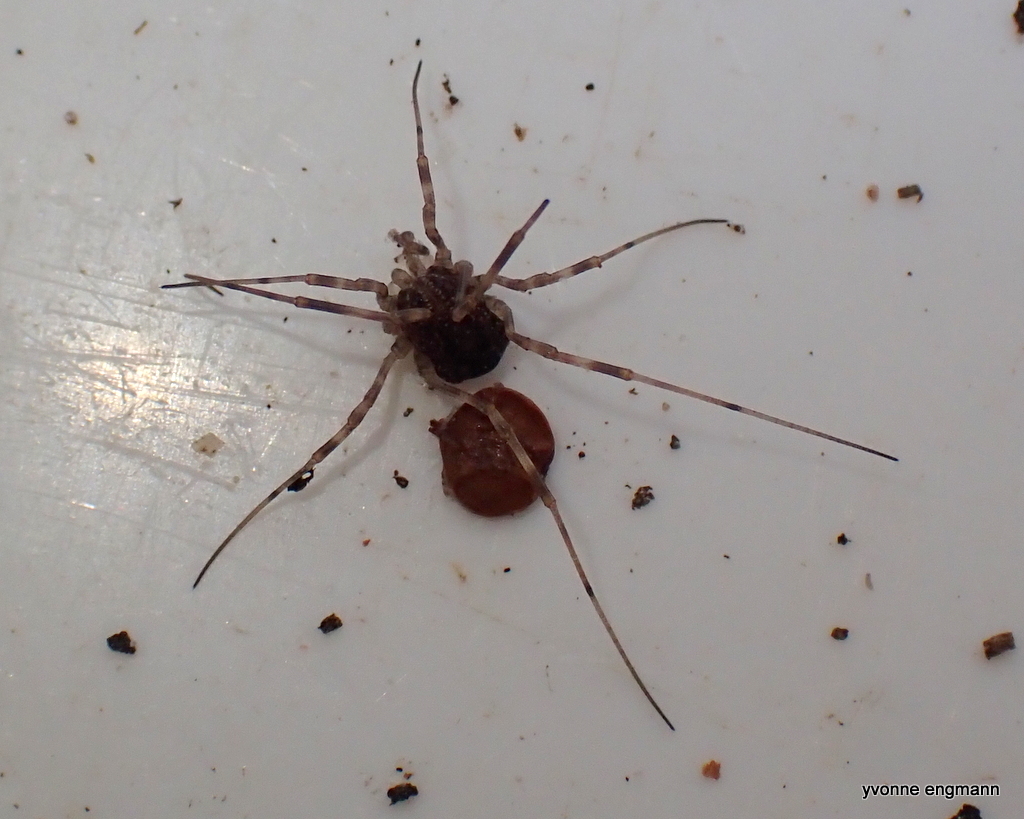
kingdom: Animalia
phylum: Arthropoda
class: Arachnida
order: Opiliones
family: Phalangiidae
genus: Rilaena
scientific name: Rilaena triangularis
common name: Spring harvestman
